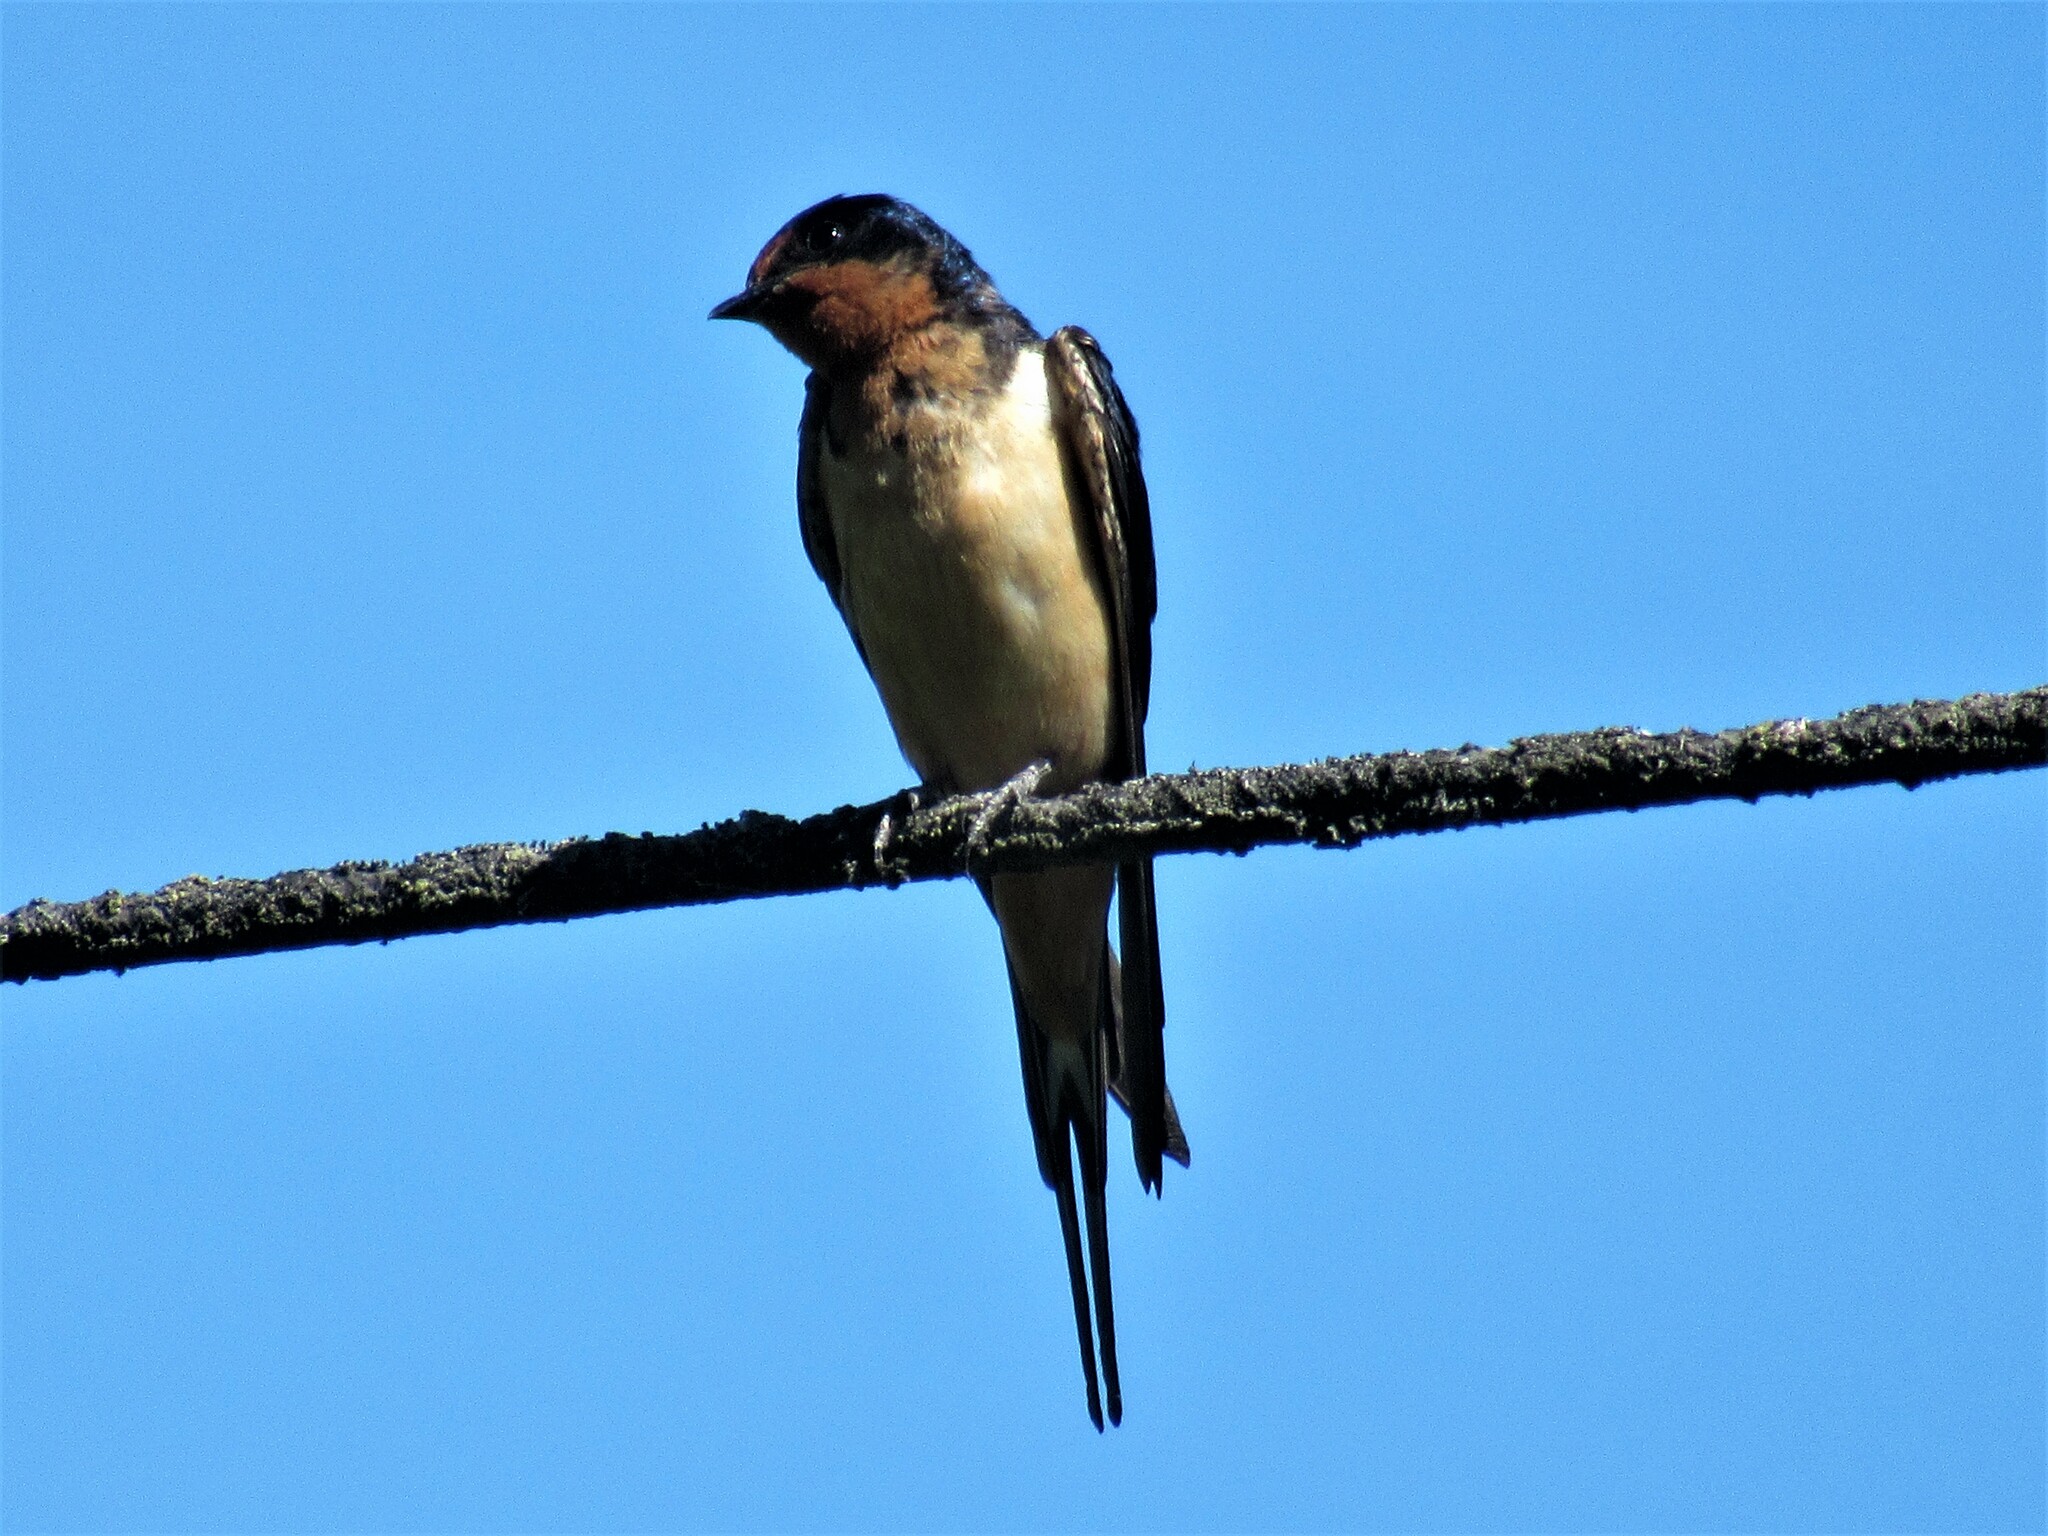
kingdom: Animalia
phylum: Chordata
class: Aves
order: Passeriformes
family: Hirundinidae
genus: Hirundo
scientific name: Hirundo rustica
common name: Barn swallow
